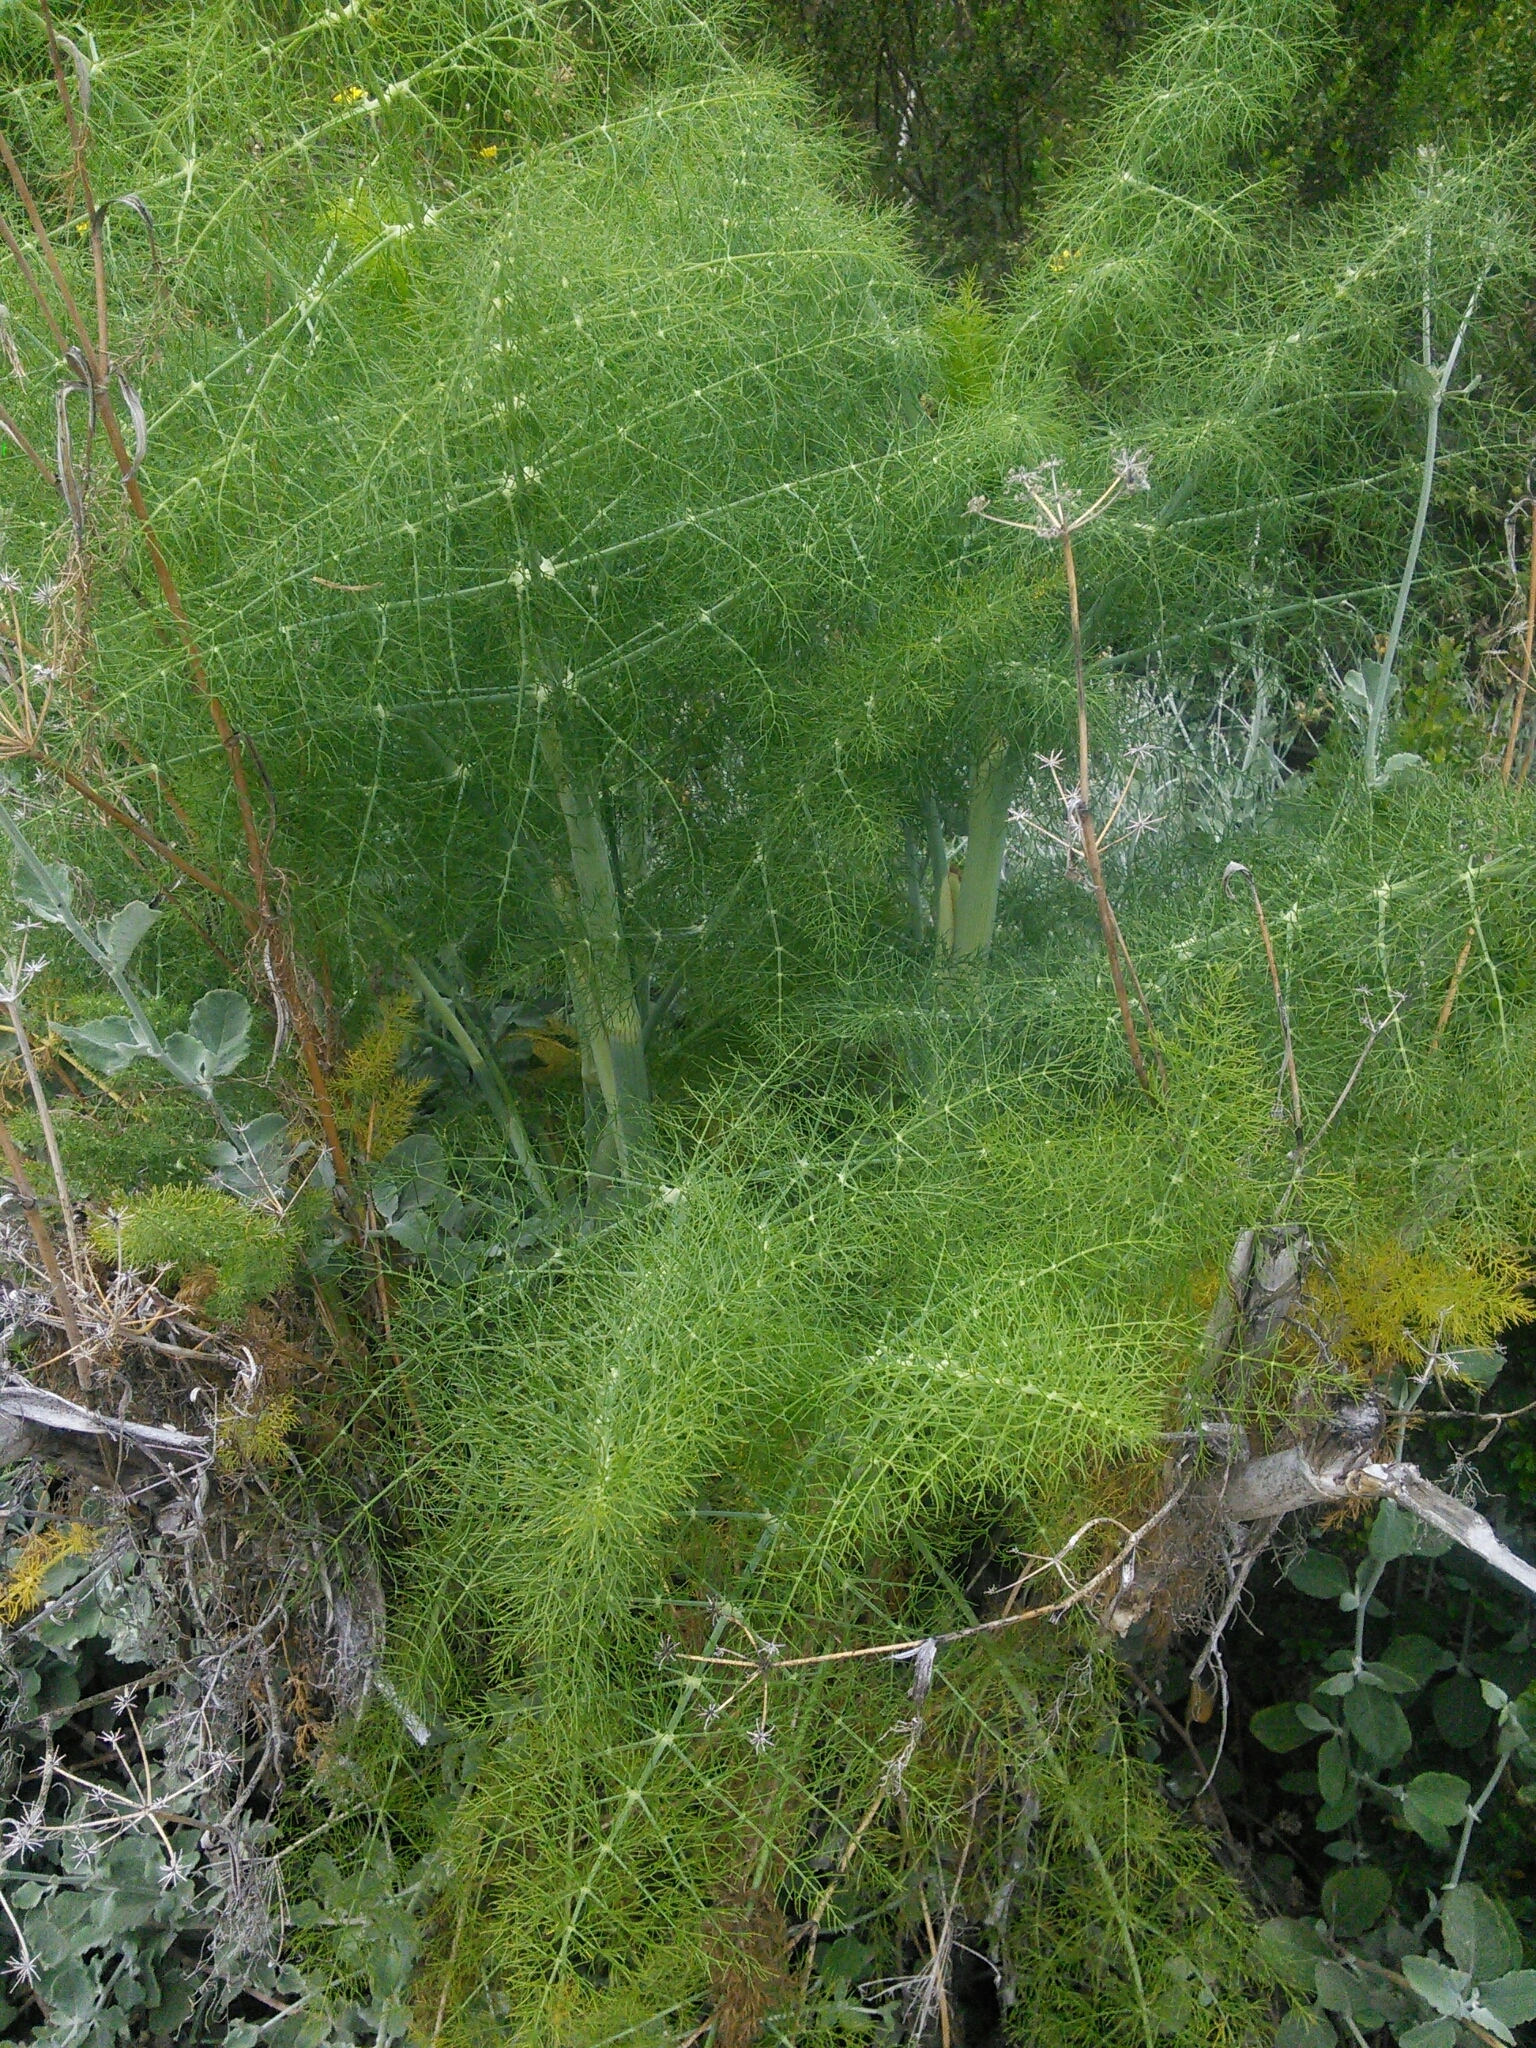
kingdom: Plantae
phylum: Tracheophyta
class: Magnoliopsida
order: Apiales
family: Apiaceae
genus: Foeniculum
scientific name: Foeniculum vulgare
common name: Fennel
